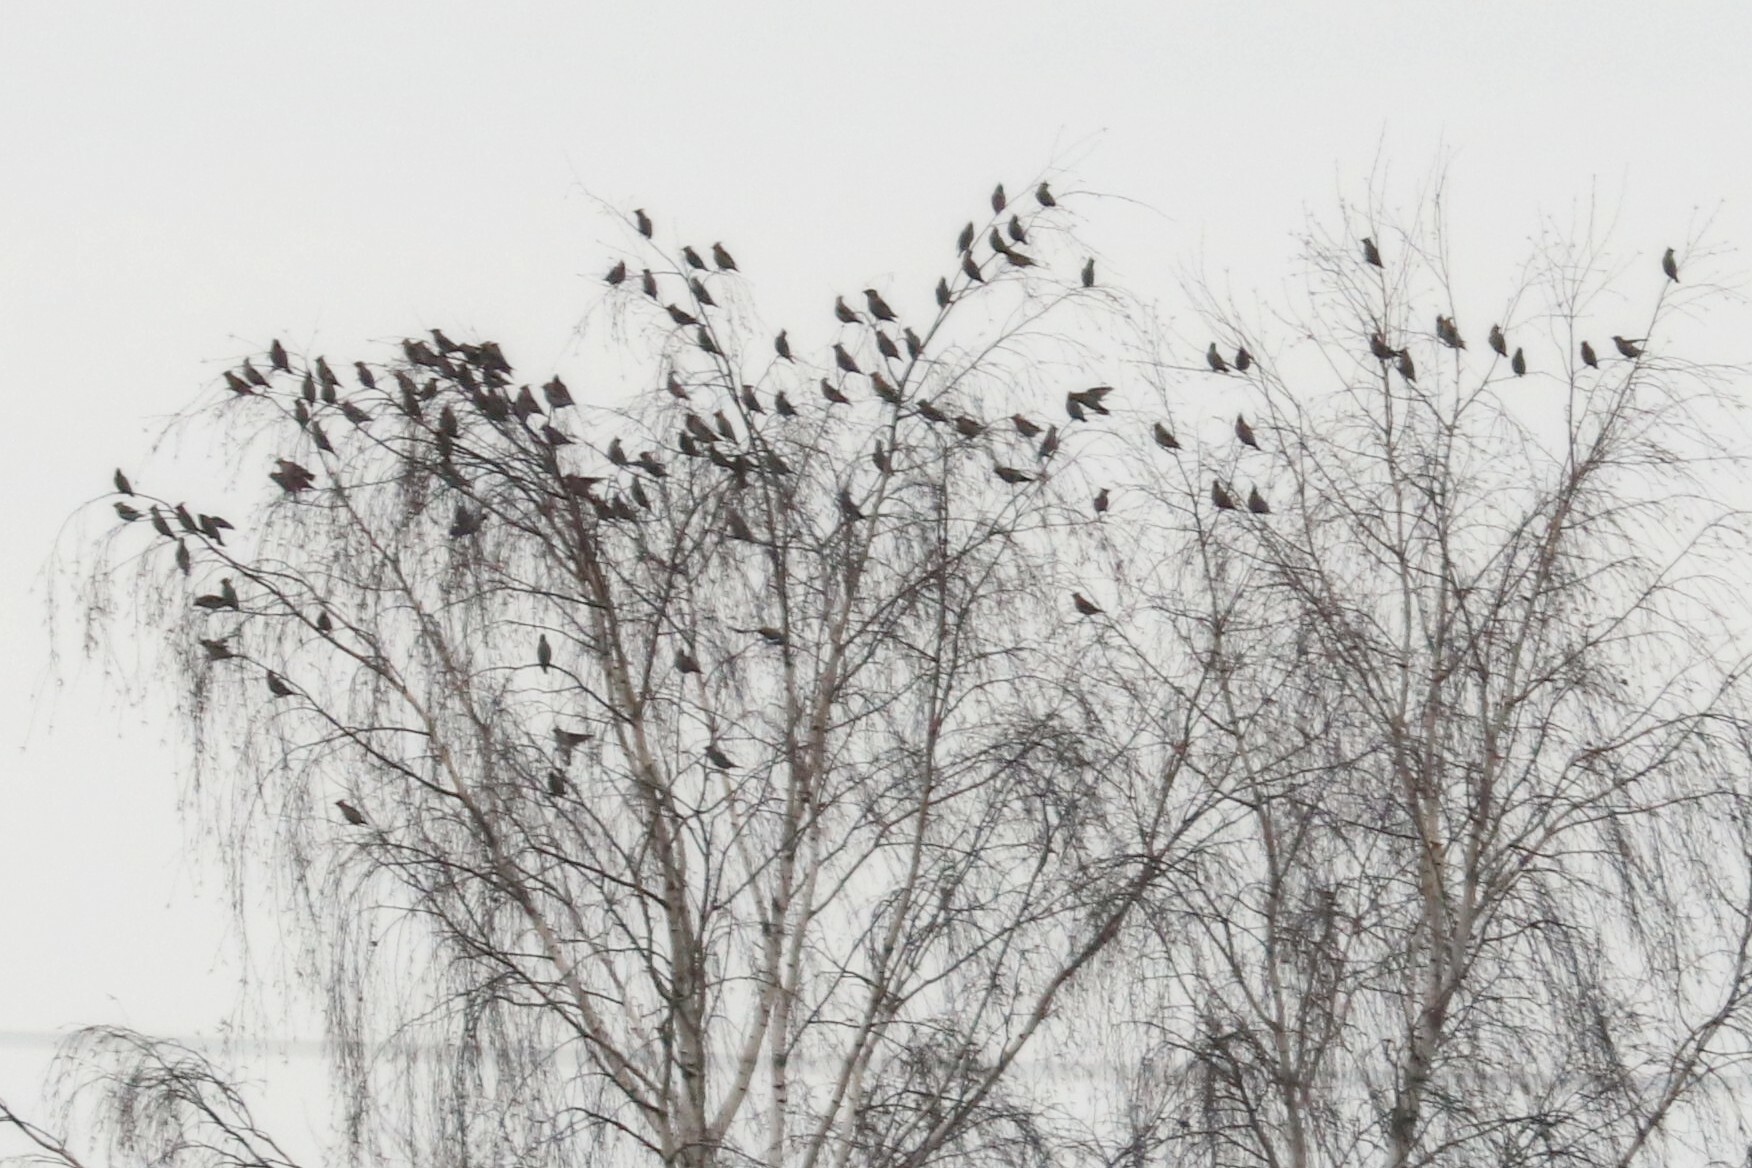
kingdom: Animalia
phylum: Chordata
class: Aves
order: Passeriformes
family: Bombycillidae
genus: Bombycilla
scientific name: Bombycilla garrulus
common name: Bohemian waxwing
